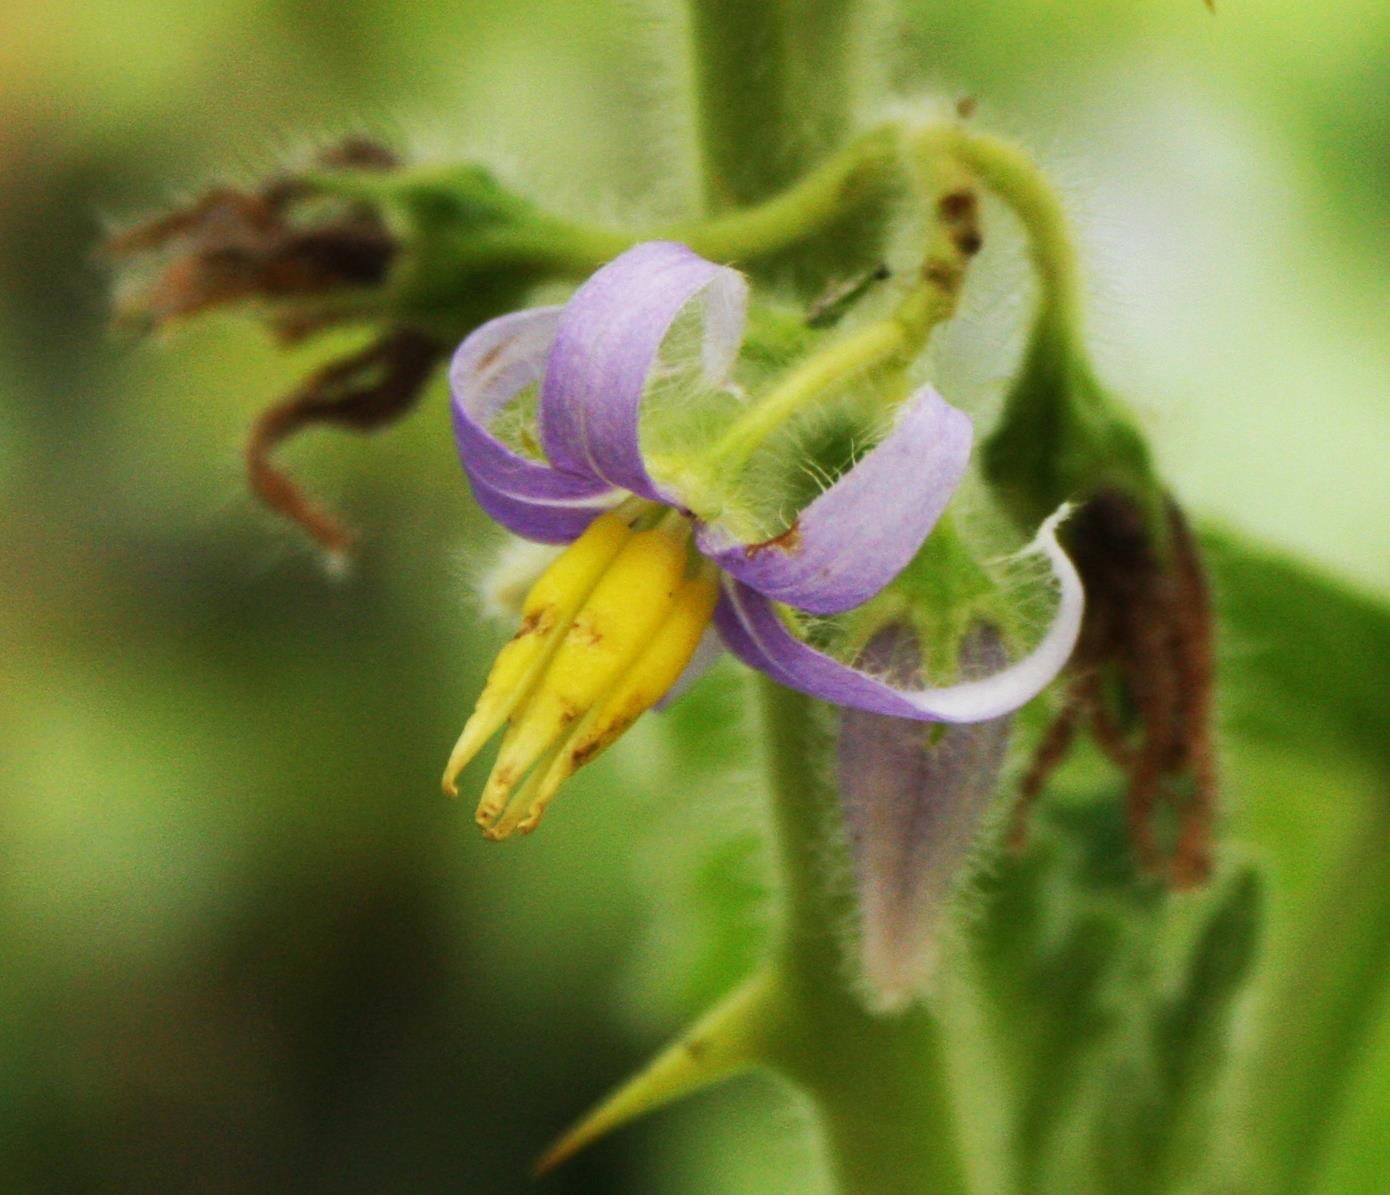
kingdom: Plantae
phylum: Tracheophyta
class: Magnoliopsida
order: Solanales
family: Solanaceae
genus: Solanum
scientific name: Solanum mammosum
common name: Nipple fruit
